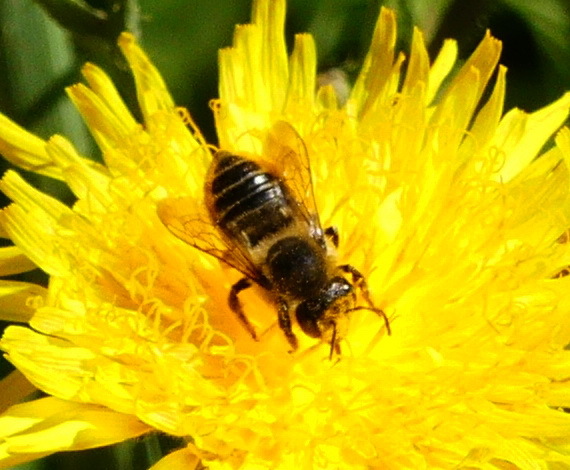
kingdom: Animalia
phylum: Arthropoda
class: Insecta
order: Hymenoptera
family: Megachilidae
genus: Megachile
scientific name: Megachile latimanus
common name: Leafcutting bee
